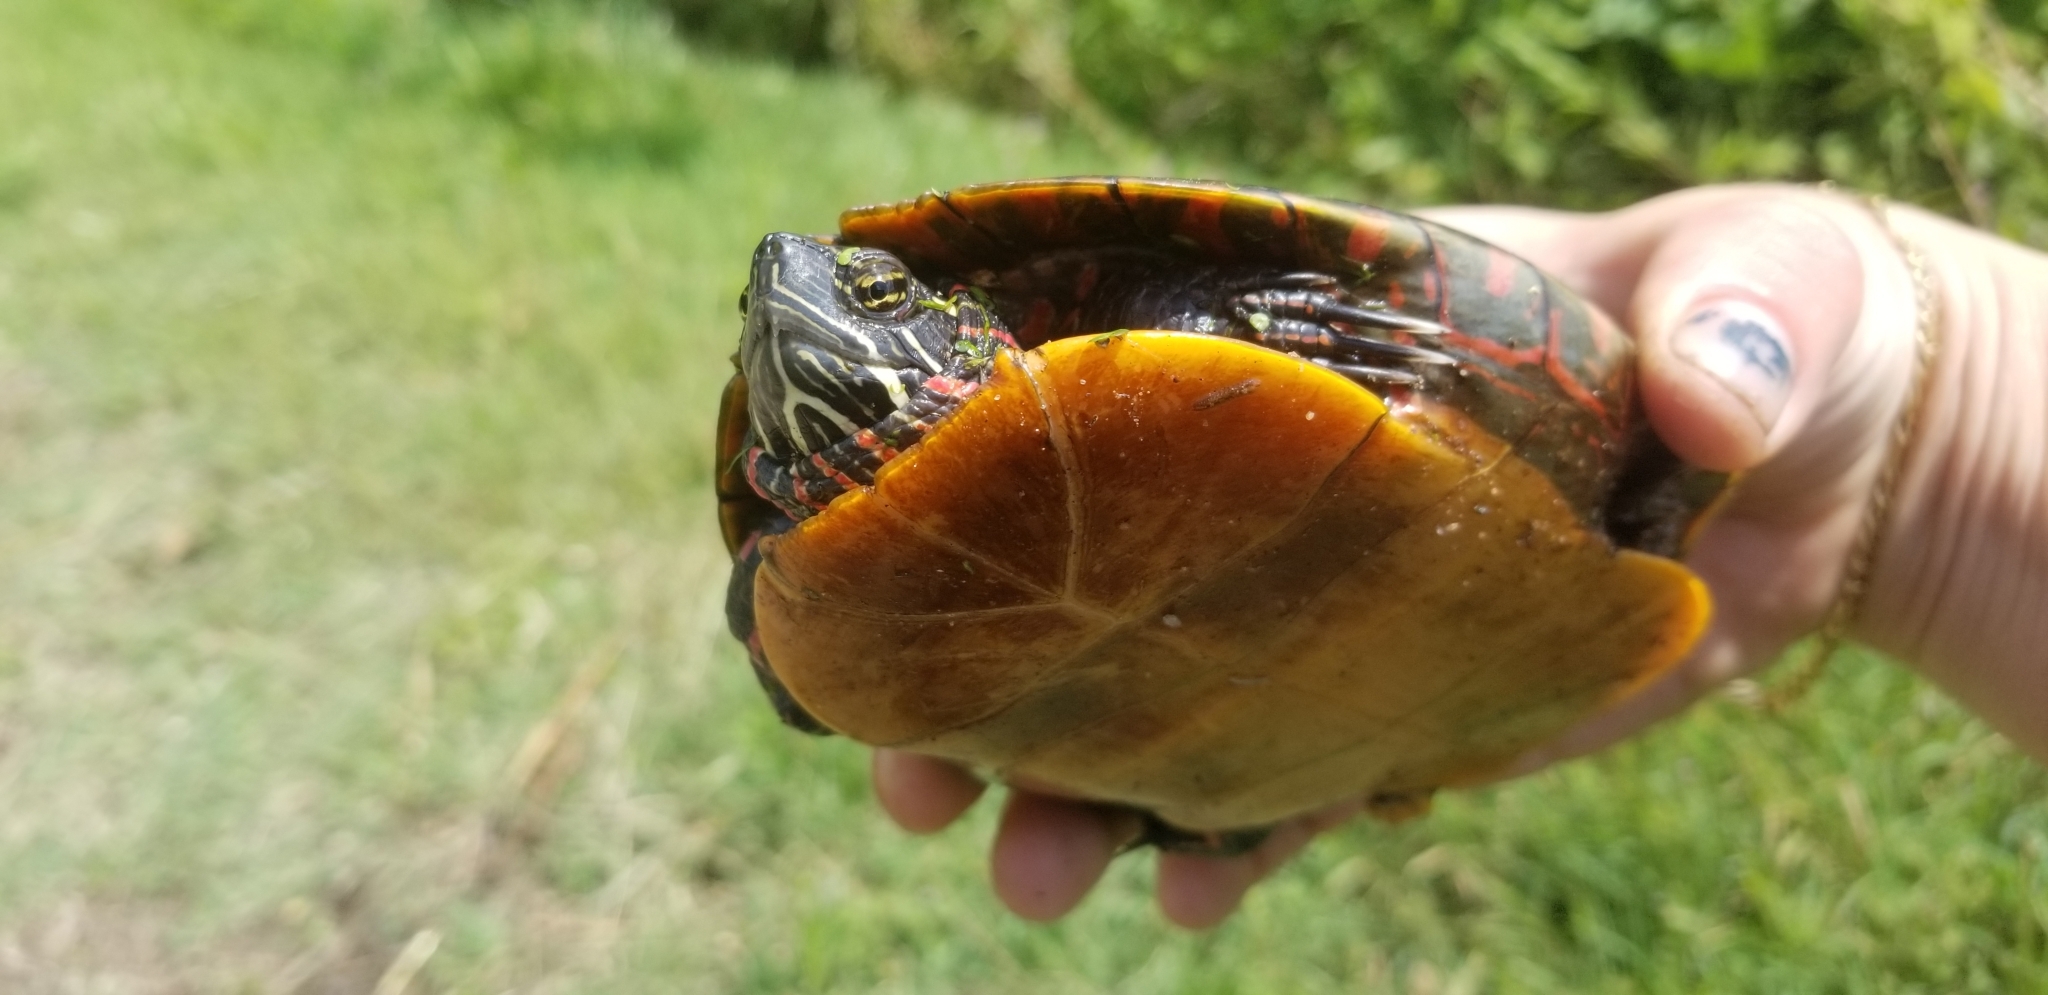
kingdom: Animalia
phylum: Chordata
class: Testudines
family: Emydidae
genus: Chrysemys
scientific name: Chrysemys picta
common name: Painted turtle
